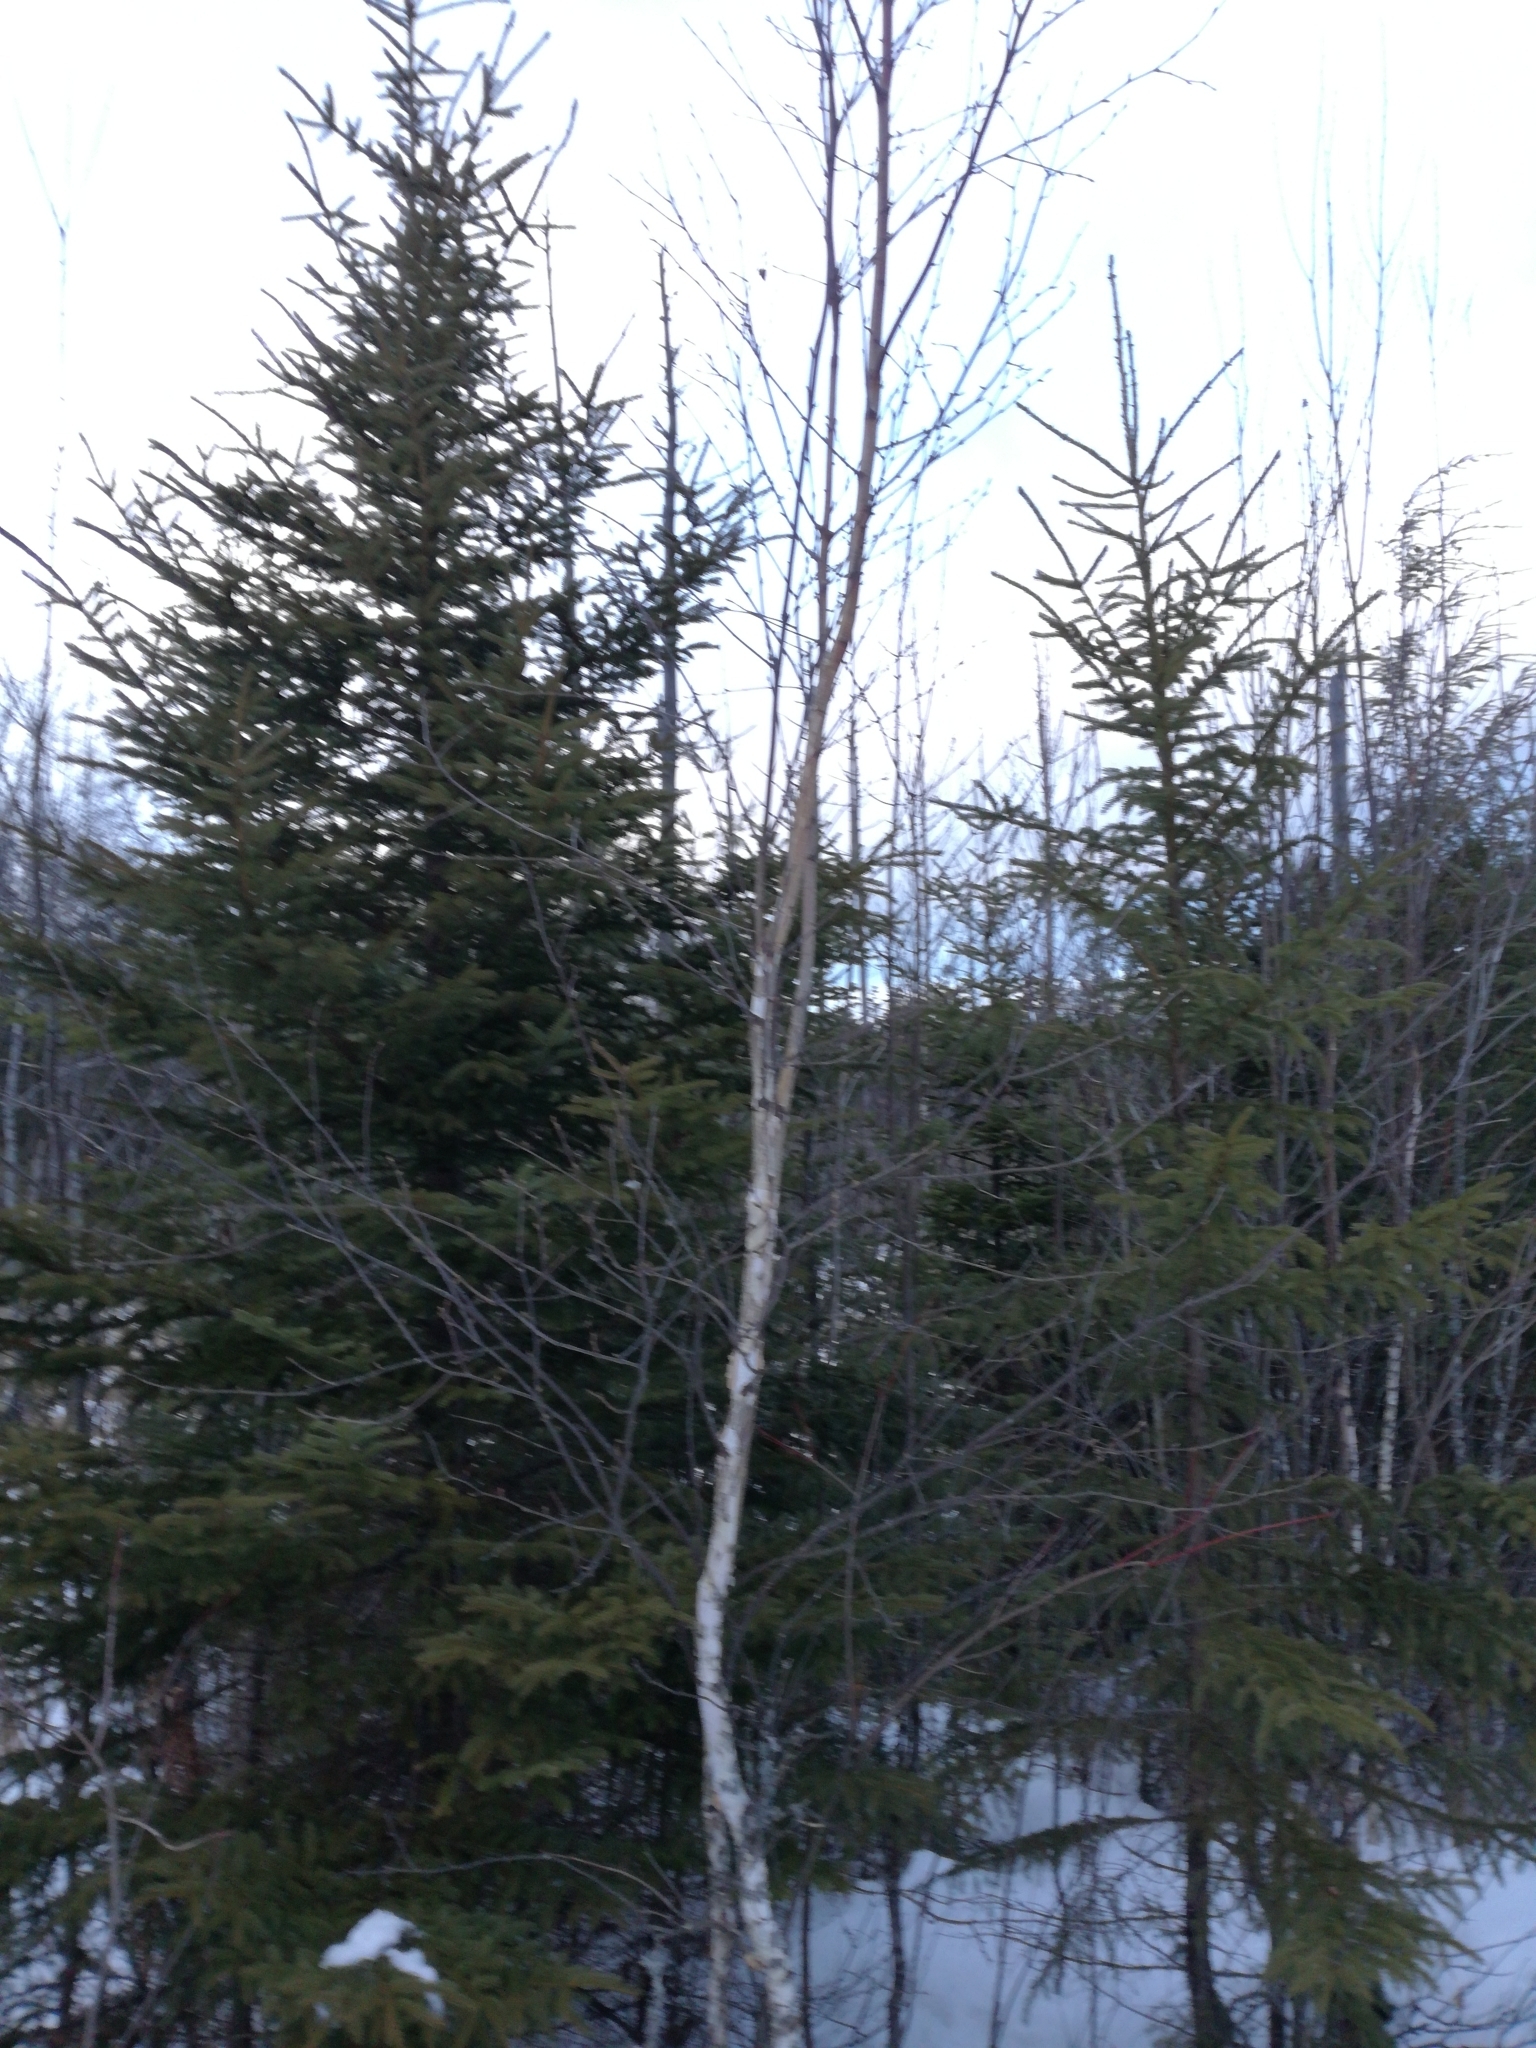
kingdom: Plantae
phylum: Tracheophyta
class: Magnoliopsida
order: Fagales
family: Betulaceae
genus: Betula
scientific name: Betula papyrifera
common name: Paper birch
